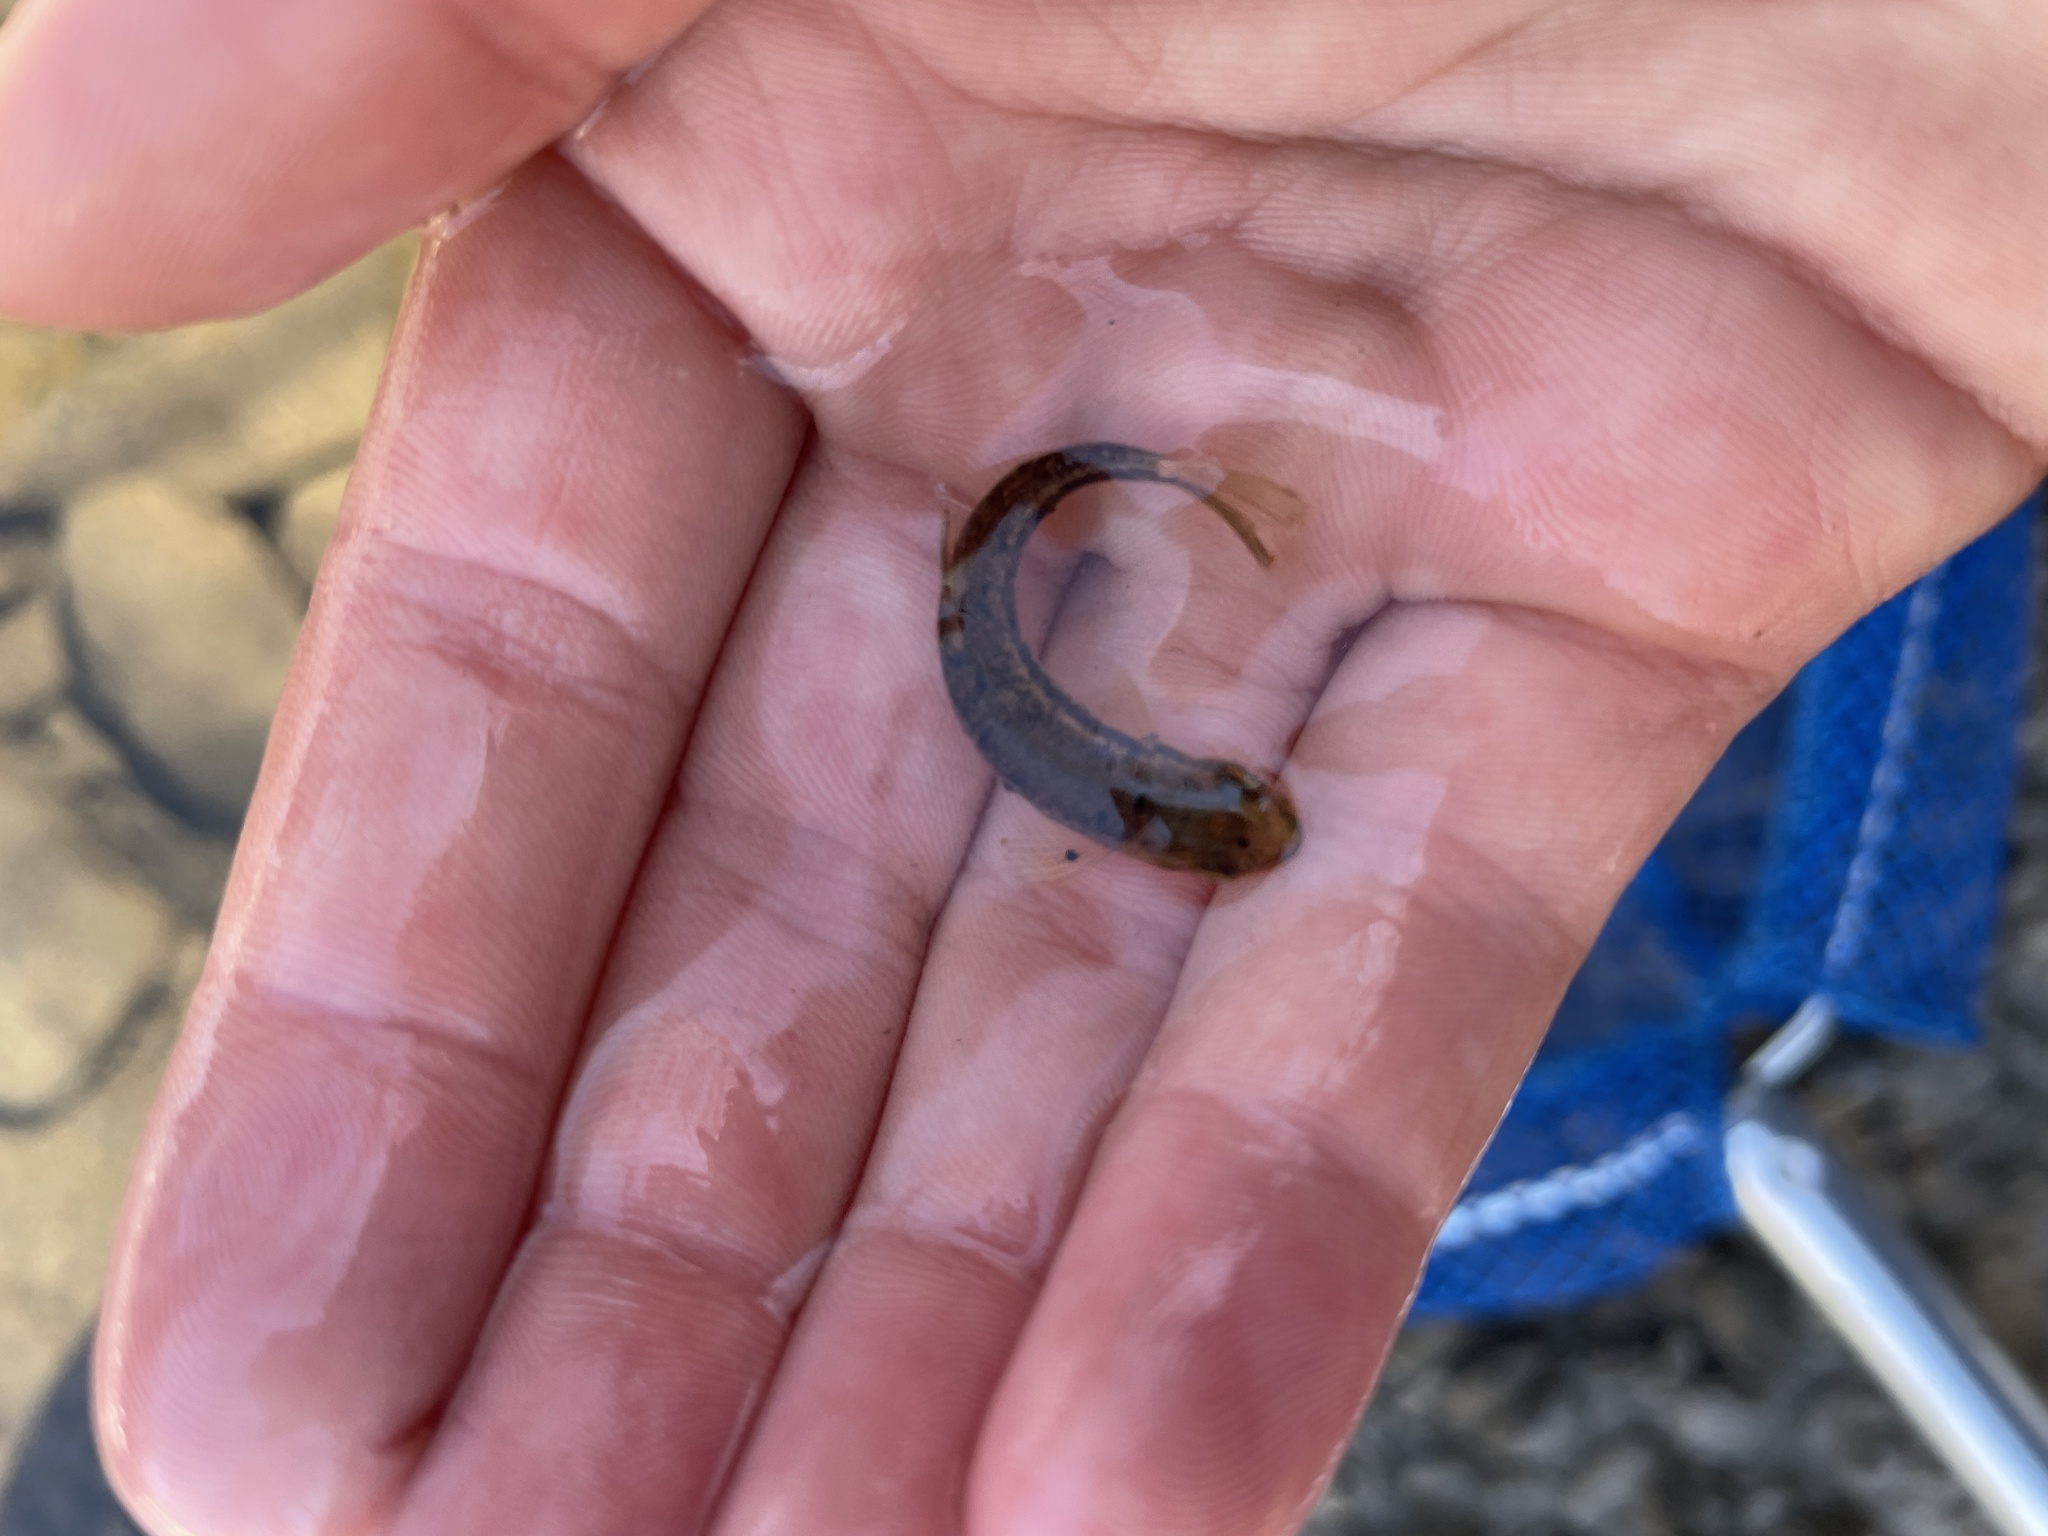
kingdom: Animalia
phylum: Chordata
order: Cypriniformes
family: Cyprinidae
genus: Rhinichthys
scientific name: Rhinichthys obtusus
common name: Western blacknose dace
